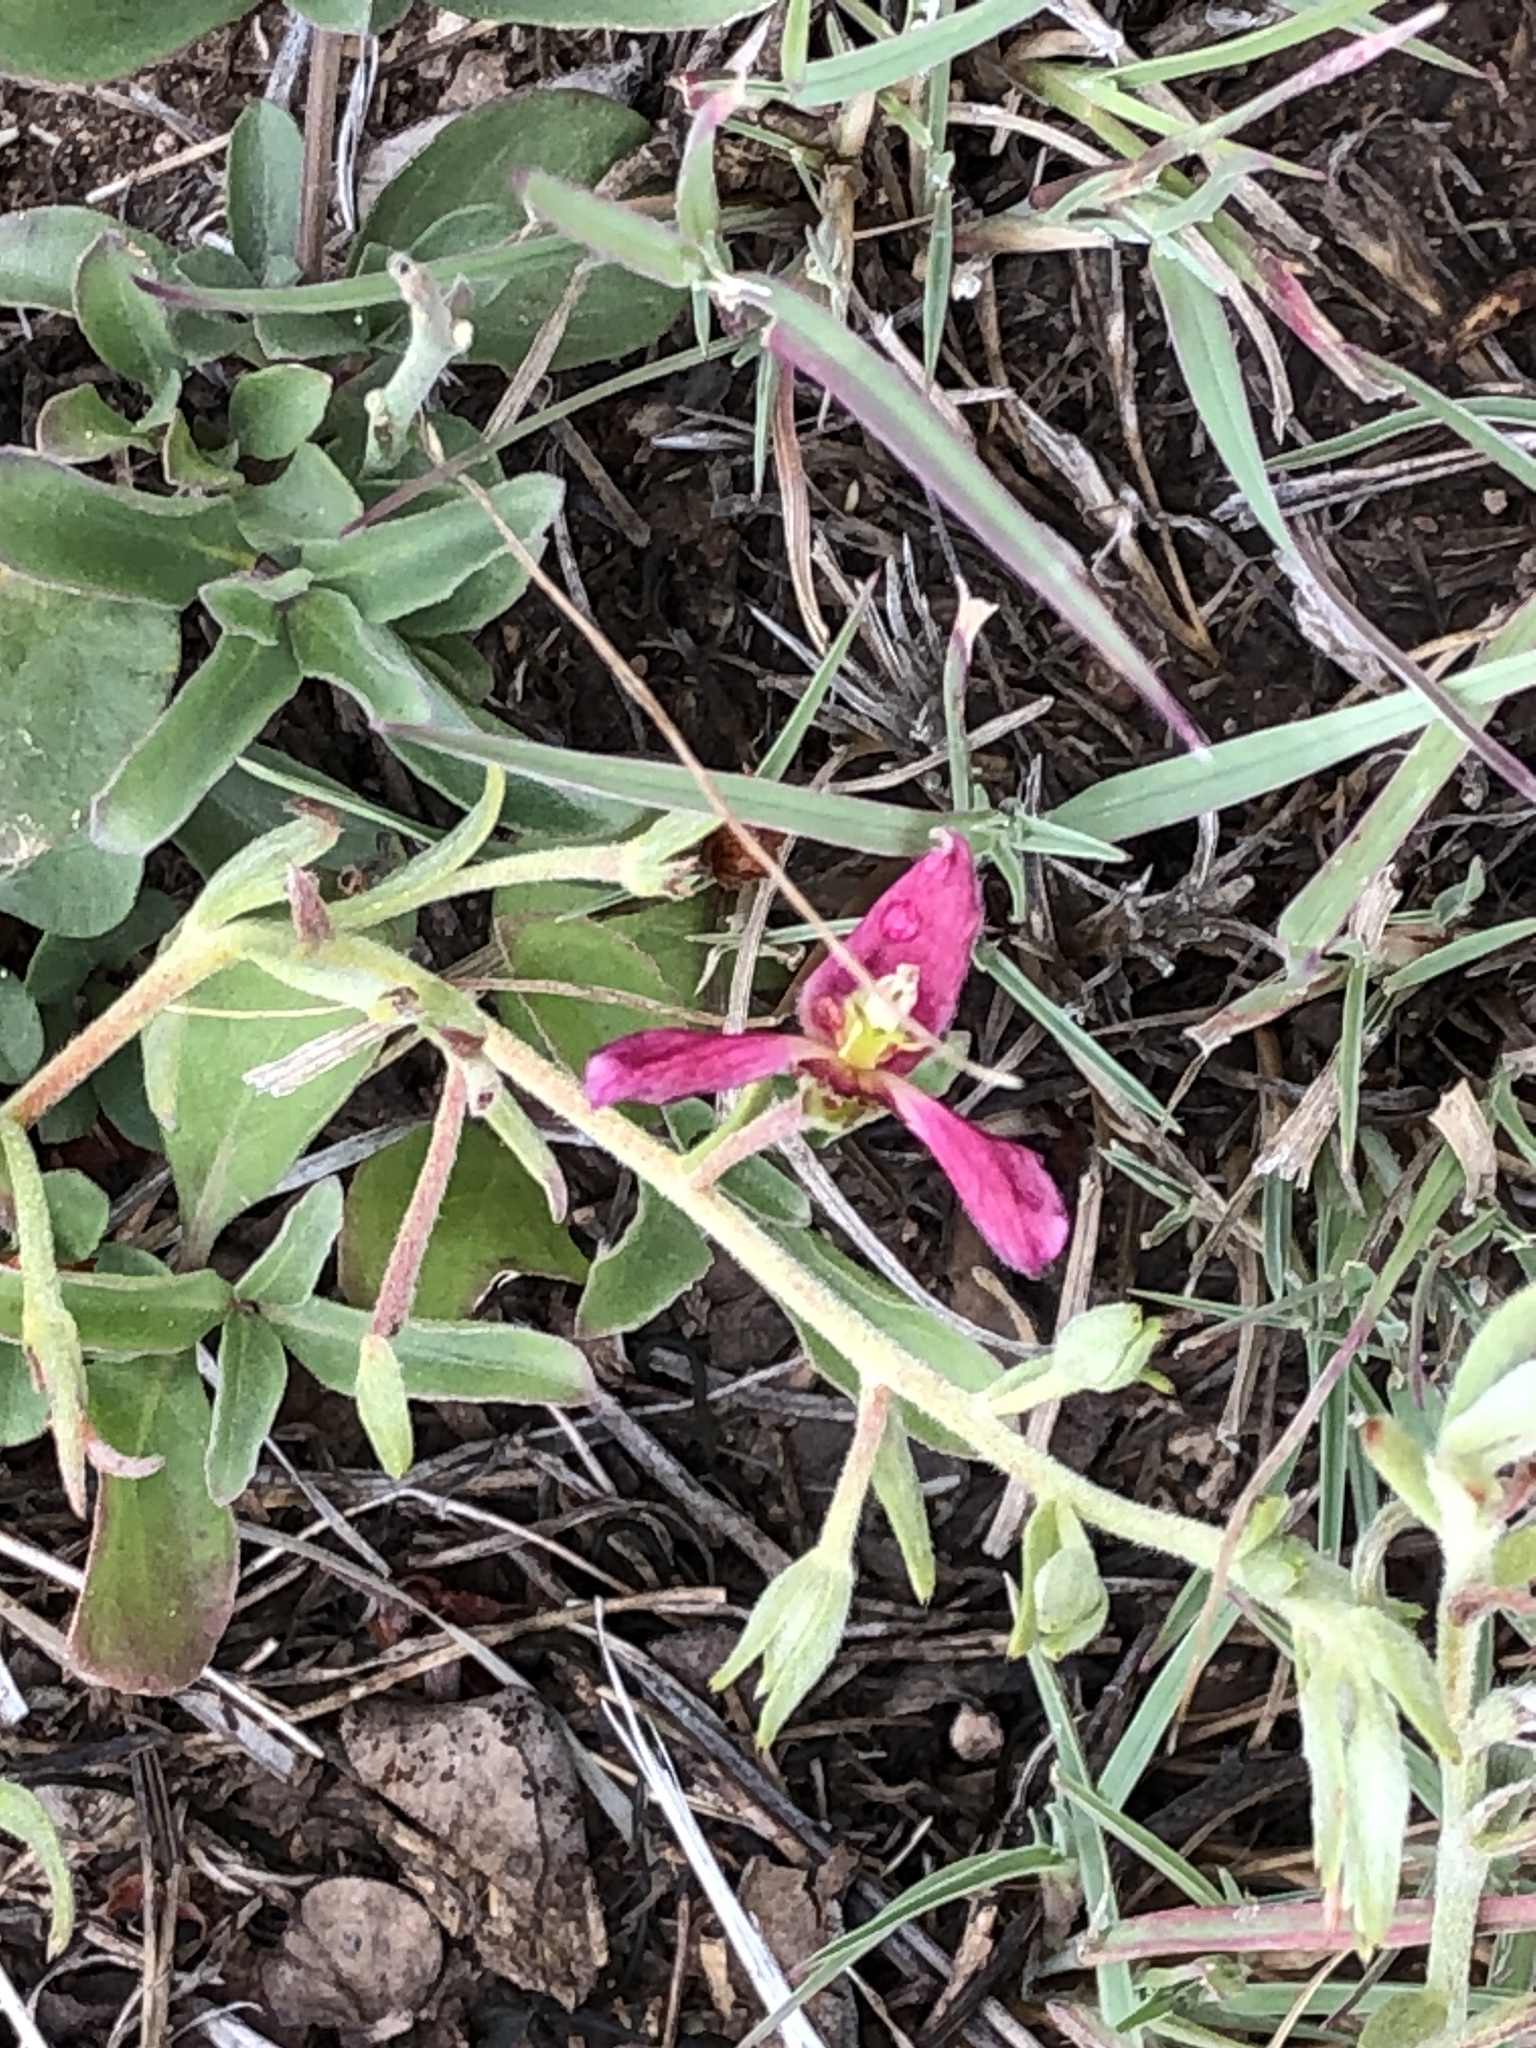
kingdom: Plantae
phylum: Tracheophyta
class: Magnoliopsida
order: Zygophyllales
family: Krameriaceae
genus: Krameria
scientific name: Krameria lanceolata
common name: Ratany
